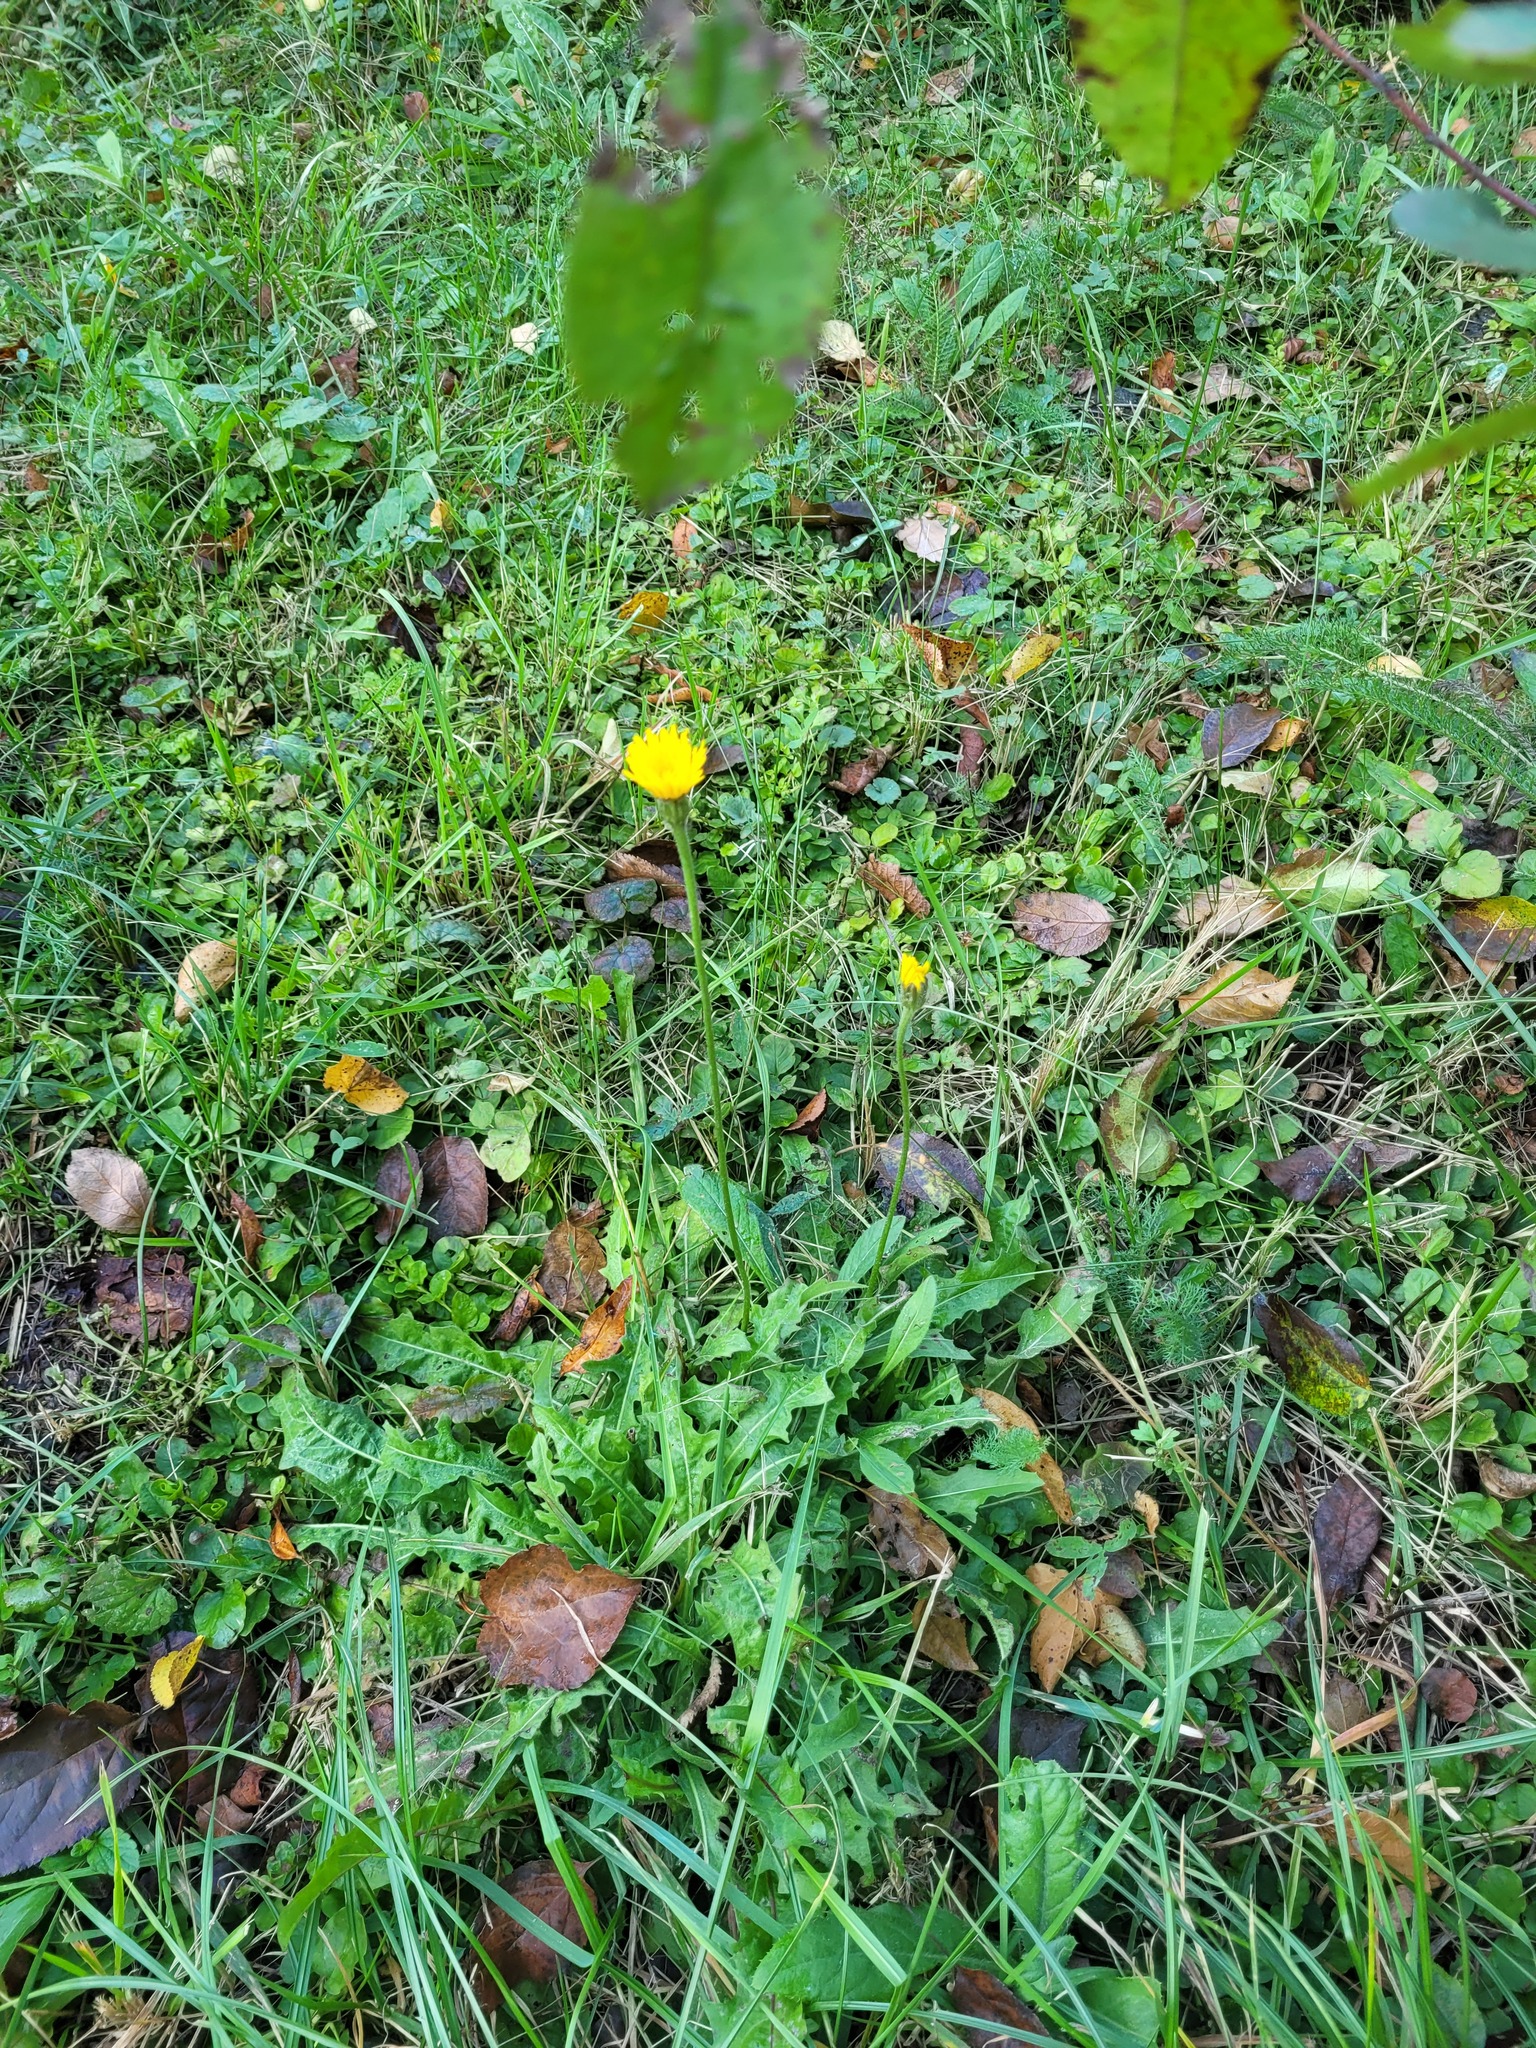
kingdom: Plantae
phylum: Tracheophyta
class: Magnoliopsida
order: Asterales
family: Asteraceae
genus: Leontodon
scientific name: Leontodon hispidus
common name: Rough hawkbit
